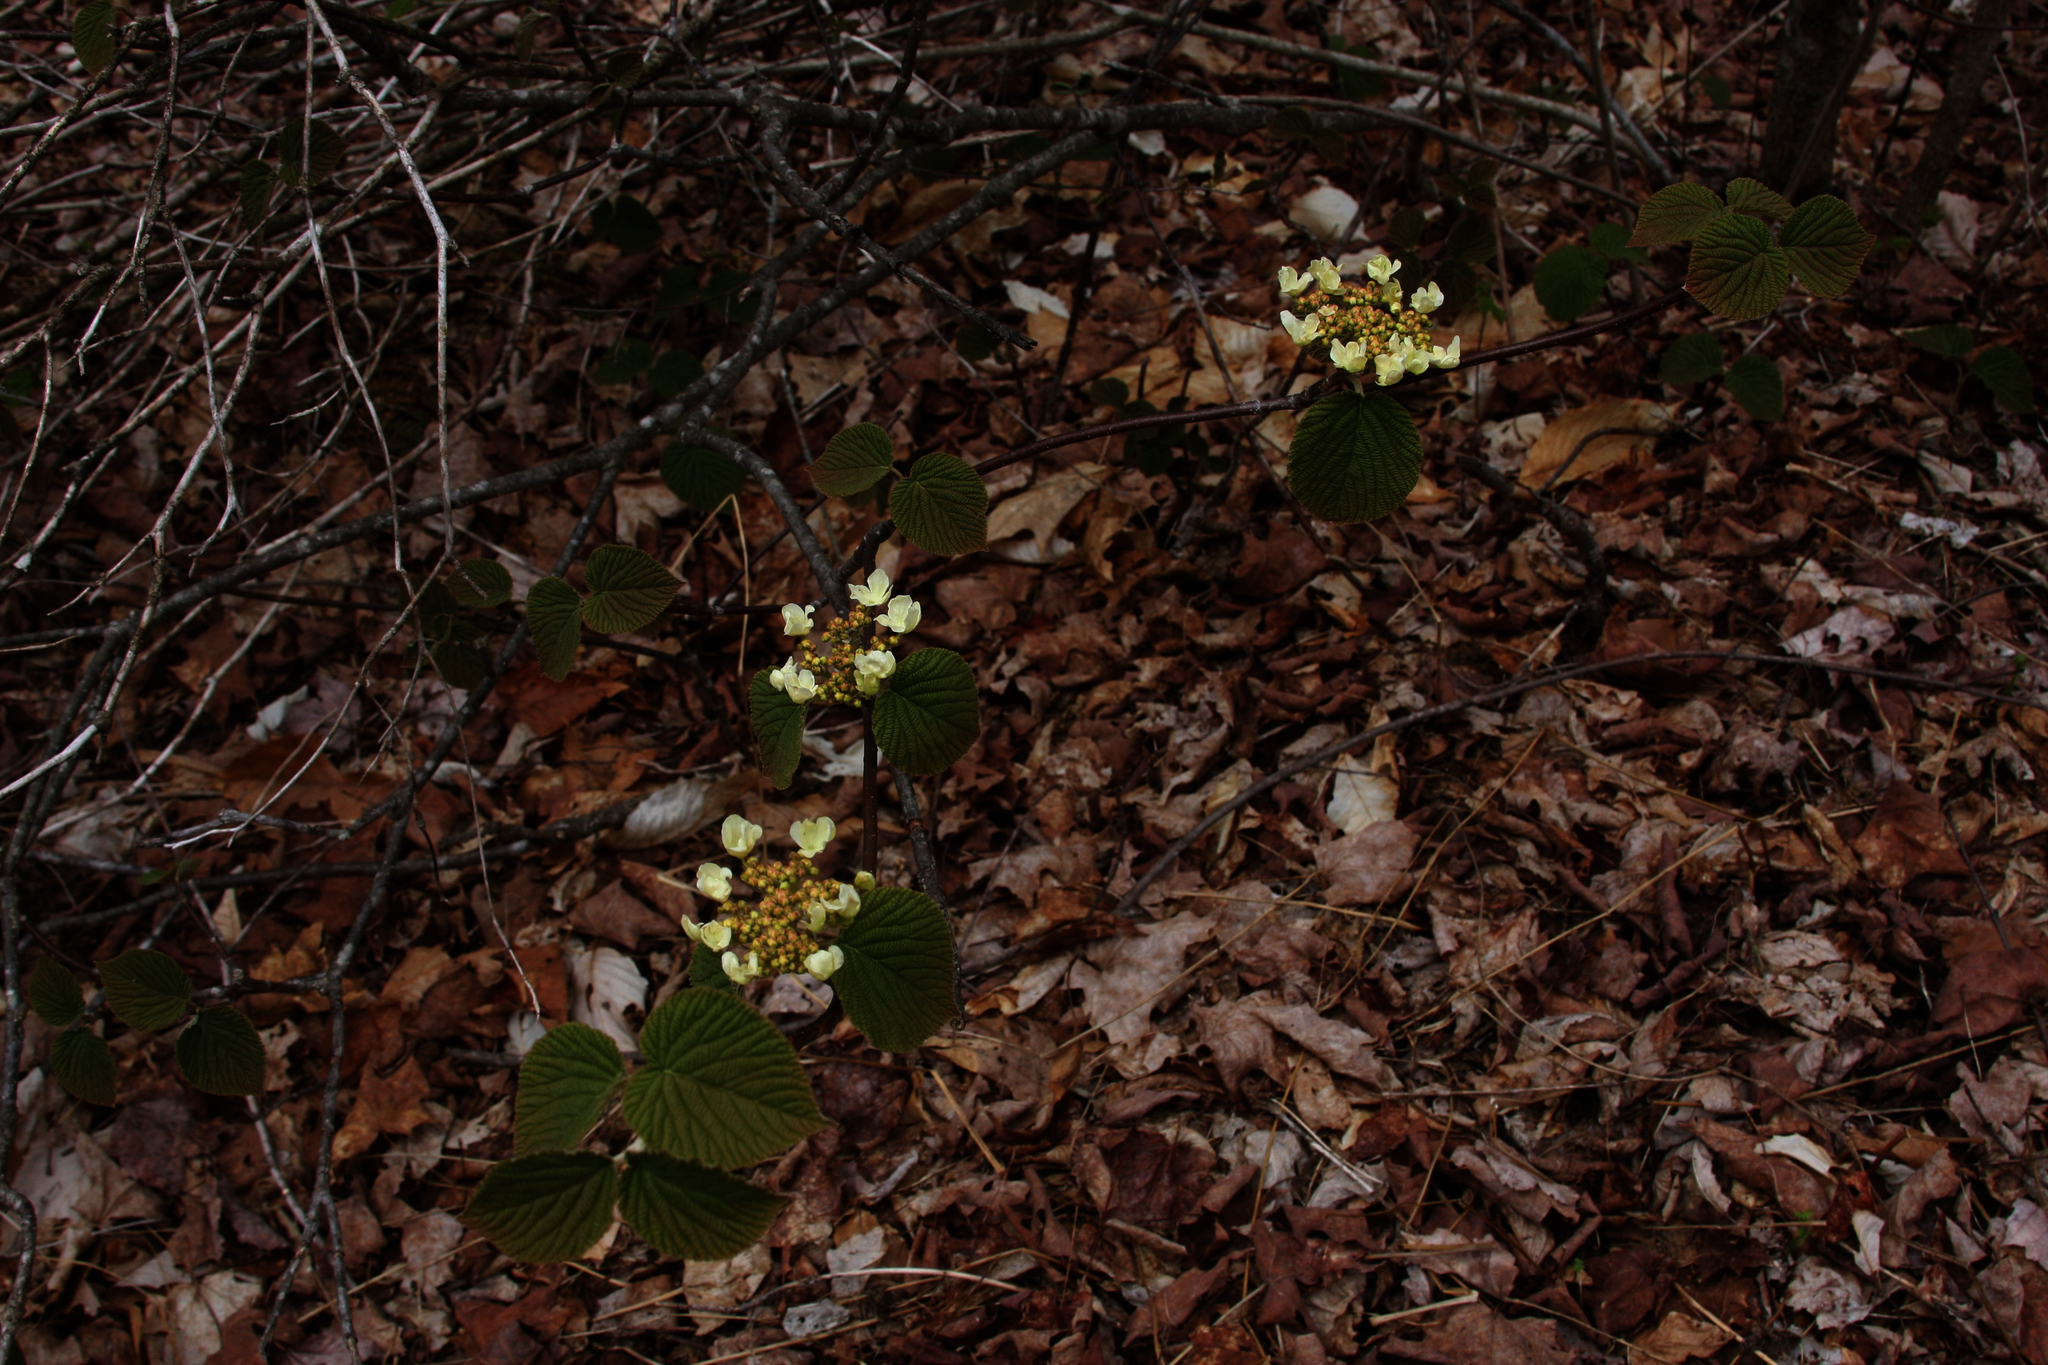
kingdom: Plantae
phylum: Tracheophyta
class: Magnoliopsida
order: Dipsacales
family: Viburnaceae
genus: Viburnum
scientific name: Viburnum lantanoides
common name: Hobblebush
